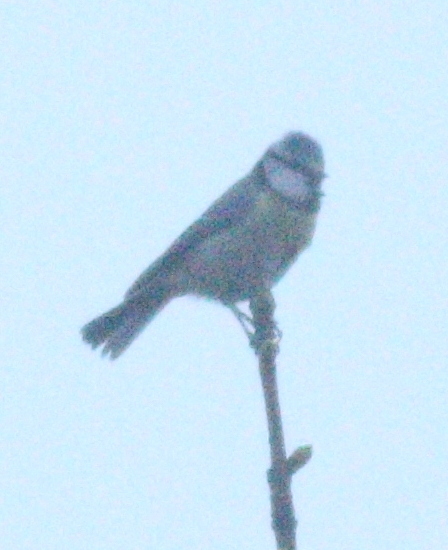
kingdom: Animalia
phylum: Chordata
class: Aves
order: Passeriformes
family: Paridae
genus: Cyanistes
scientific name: Cyanistes caeruleus
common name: Eurasian blue tit
